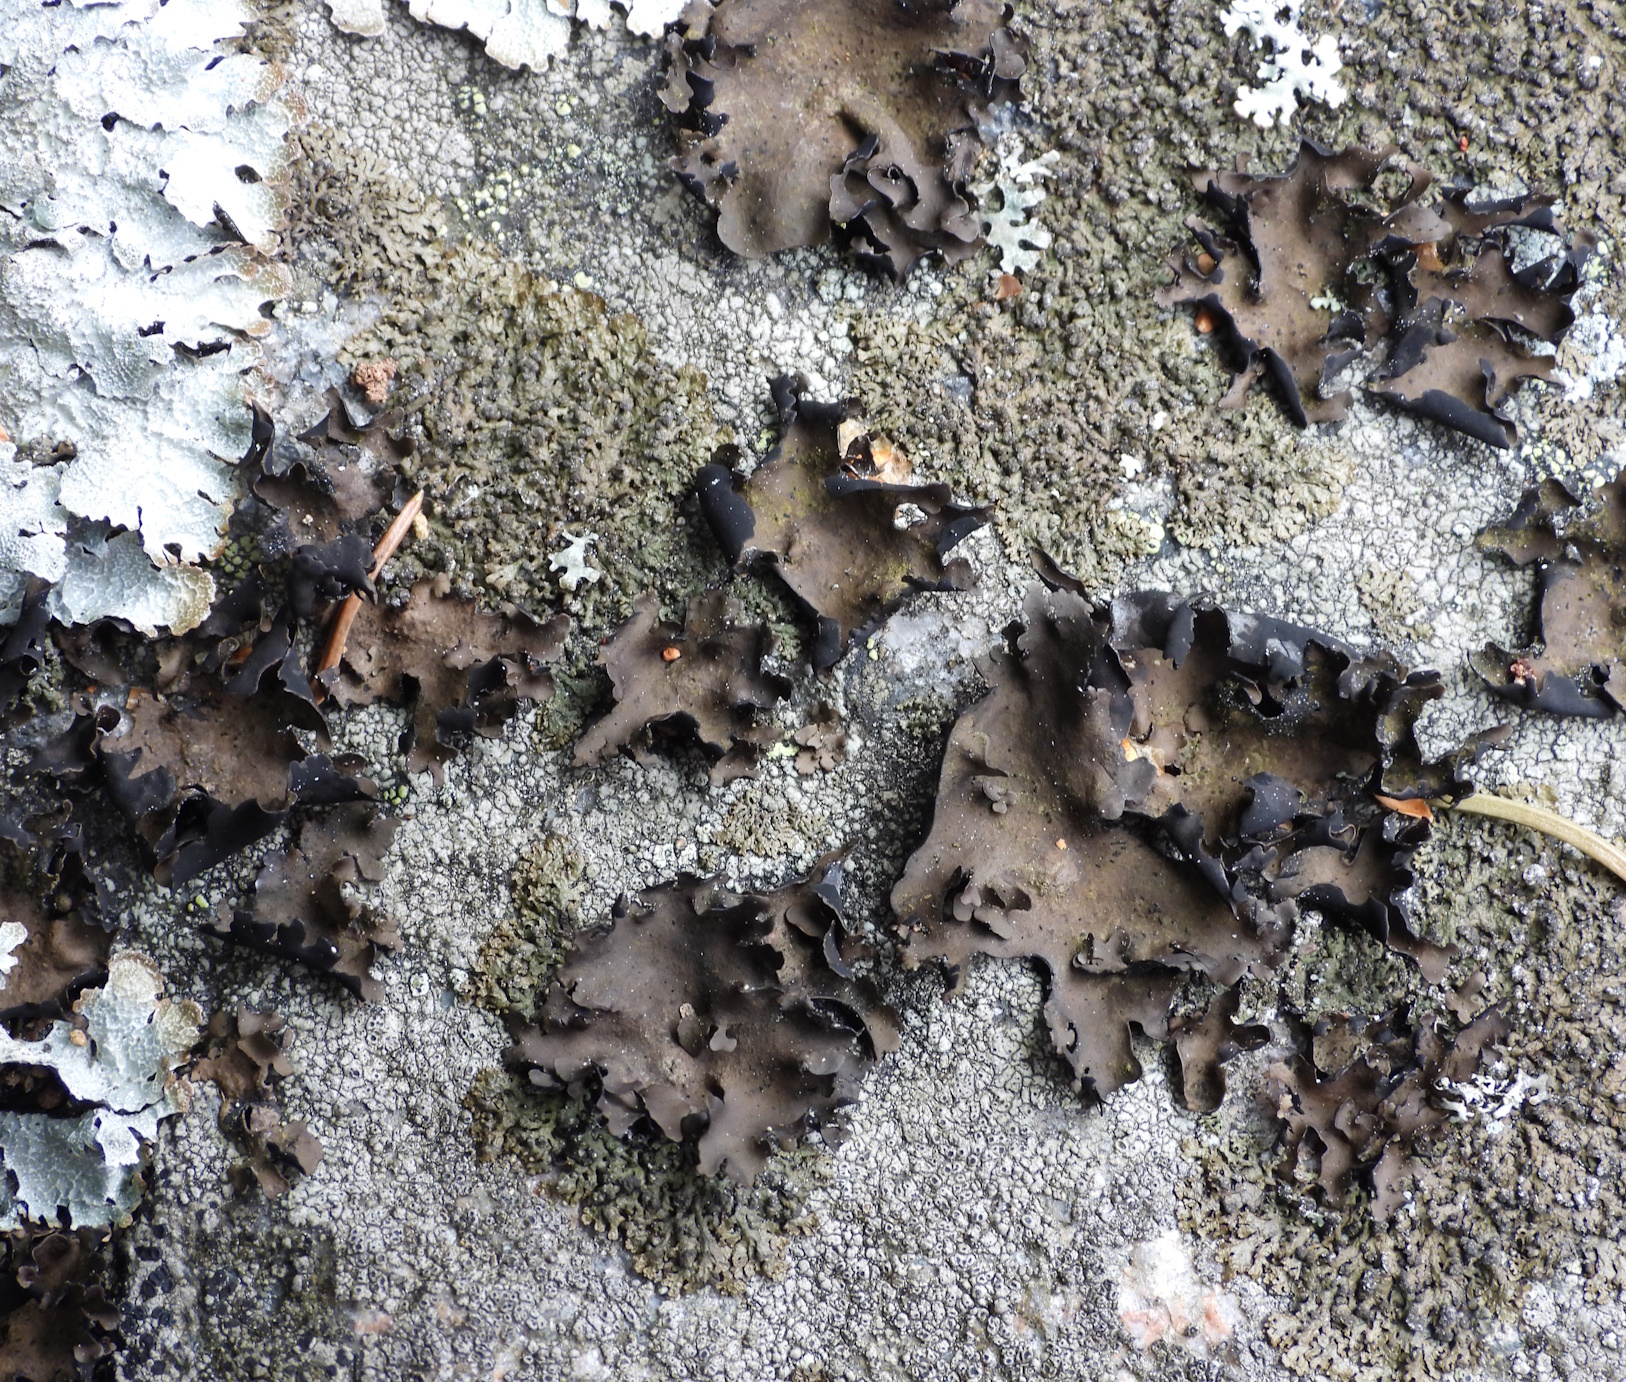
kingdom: Fungi
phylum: Ascomycota
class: Lecanoromycetes
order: Umbilicariales
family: Umbilicariaceae
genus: Umbilicaria
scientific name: Umbilicaria polyphylla
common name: Petalled rocktripe lichen
